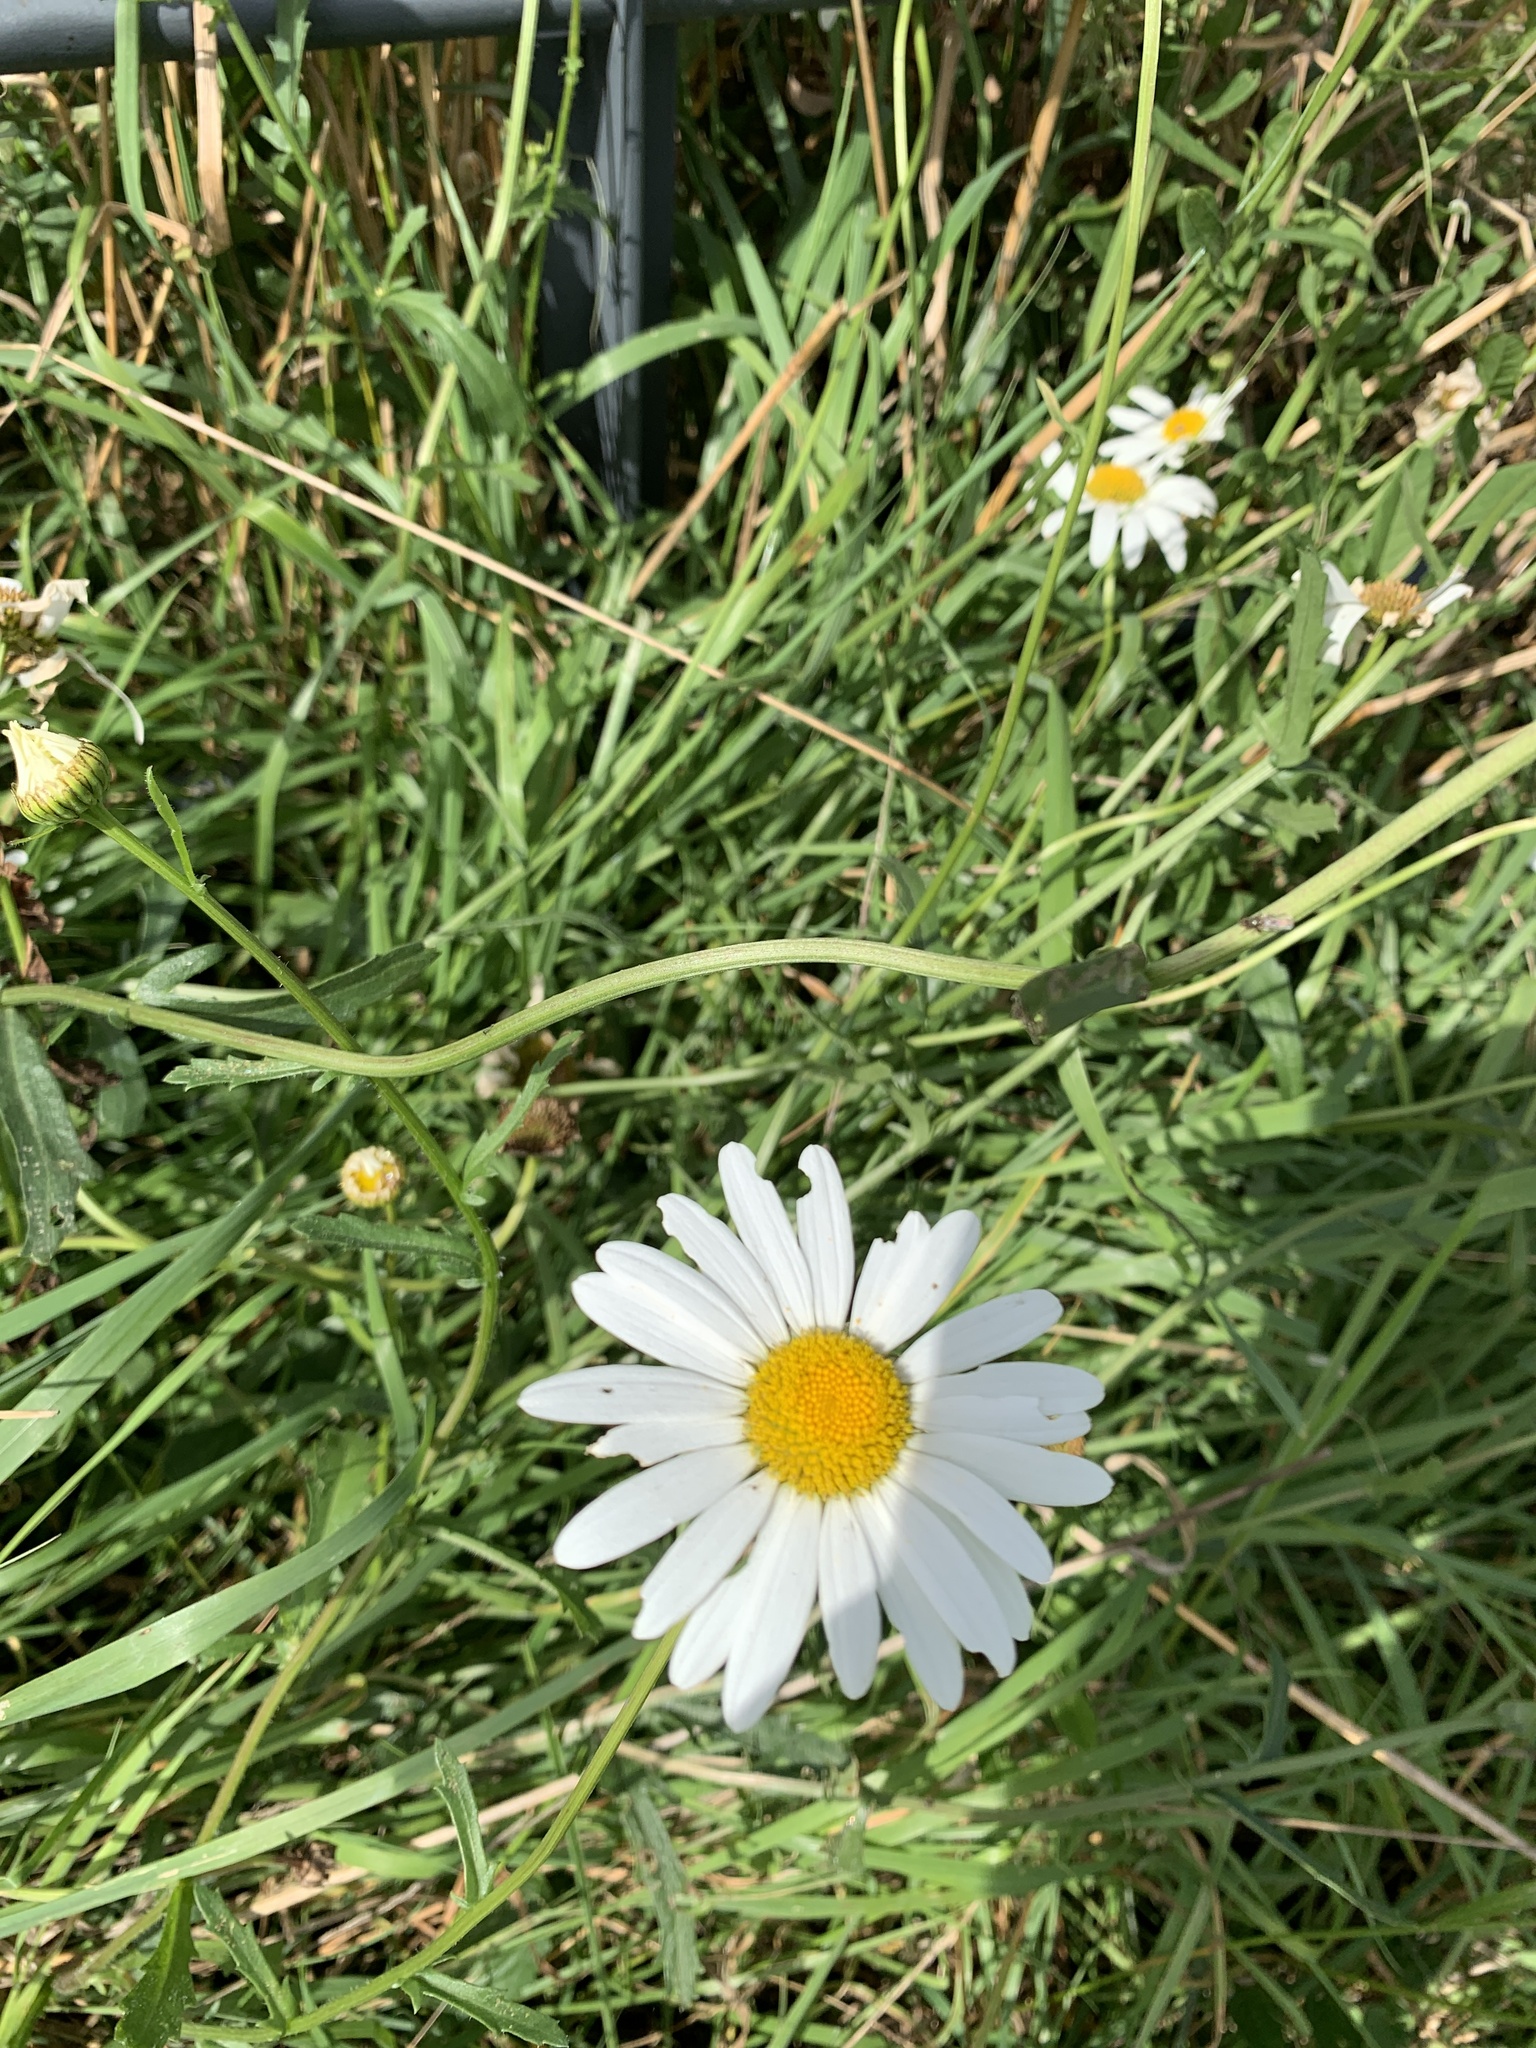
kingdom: Plantae
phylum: Tracheophyta
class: Magnoliopsida
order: Asterales
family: Asteraceae
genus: Leucanthemum
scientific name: Leucanthemum vulgare
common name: Oxeye daisy
